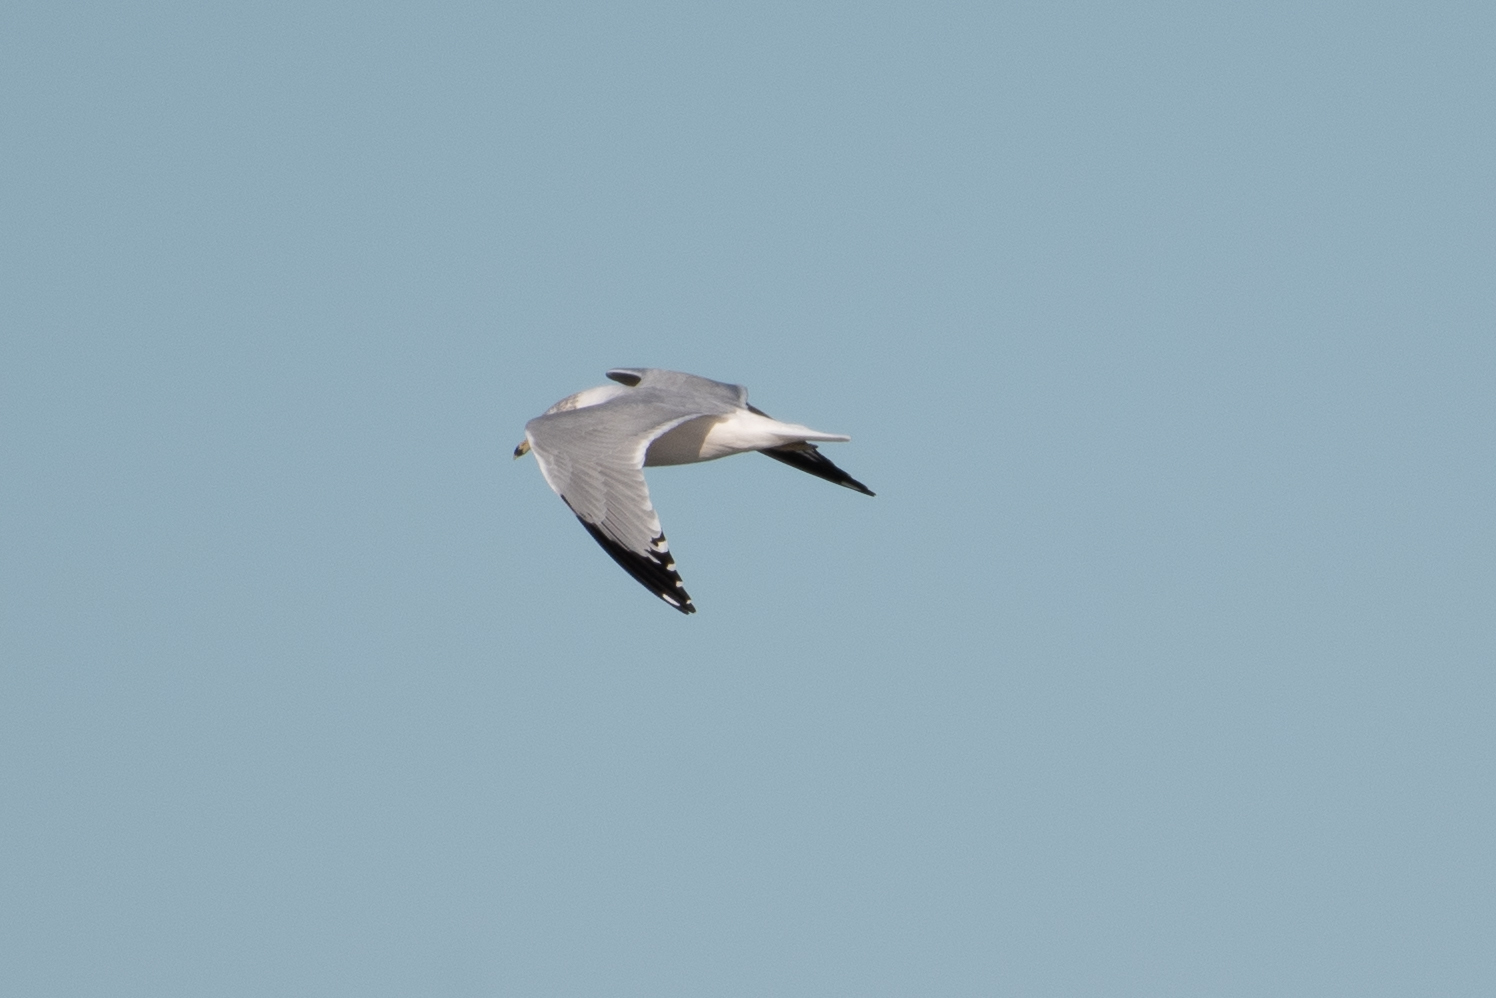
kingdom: Animalia
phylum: Chordata
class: Aves
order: Charadriiformes
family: Laridae
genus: Larus
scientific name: Larus delawarensis
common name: Ring-billed gull
